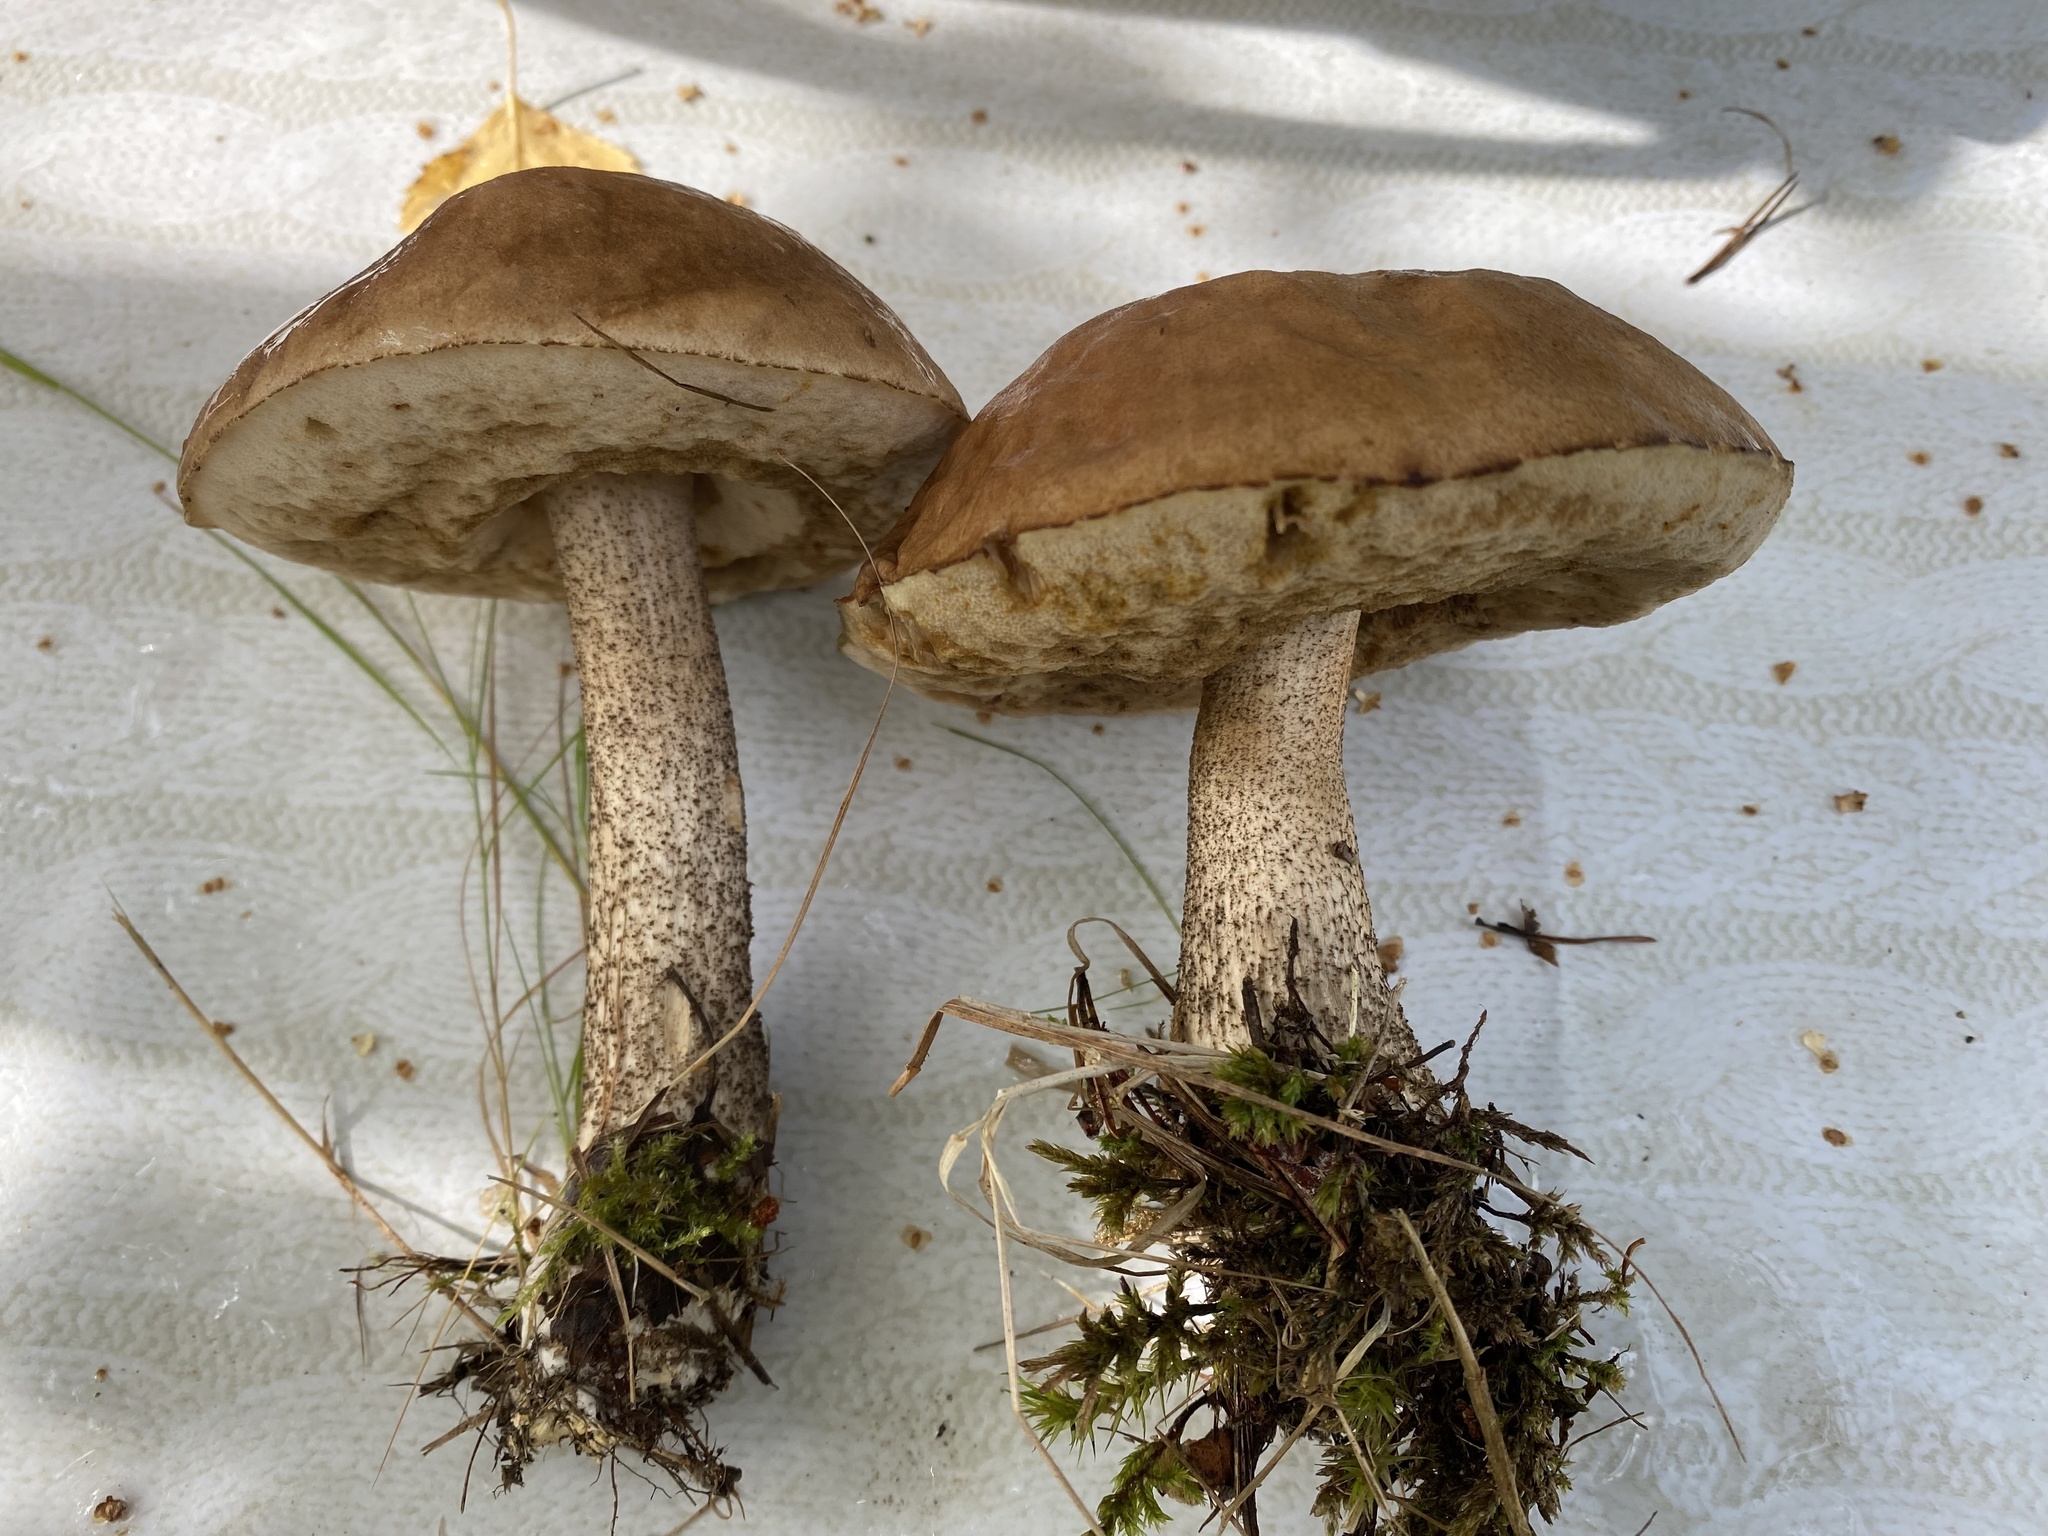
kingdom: Fungi
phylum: Basidiomycota
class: Agaricomycetes
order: Boletales
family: Boletaceae
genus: Leccinum
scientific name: Leccinum scabrum
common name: Blushing bolete
